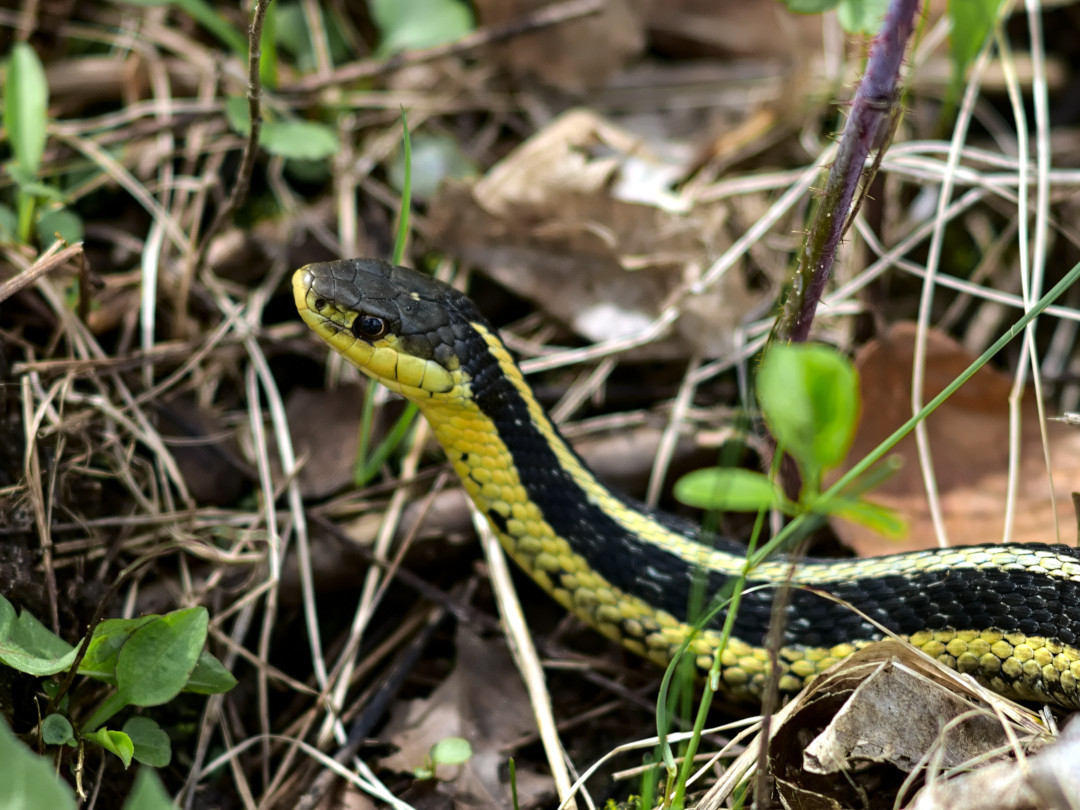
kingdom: Animalia
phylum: Chordata
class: Squamata
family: Colubridae
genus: Thamnophis
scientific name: Thamnophis sirtalis
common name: Common garter snake
